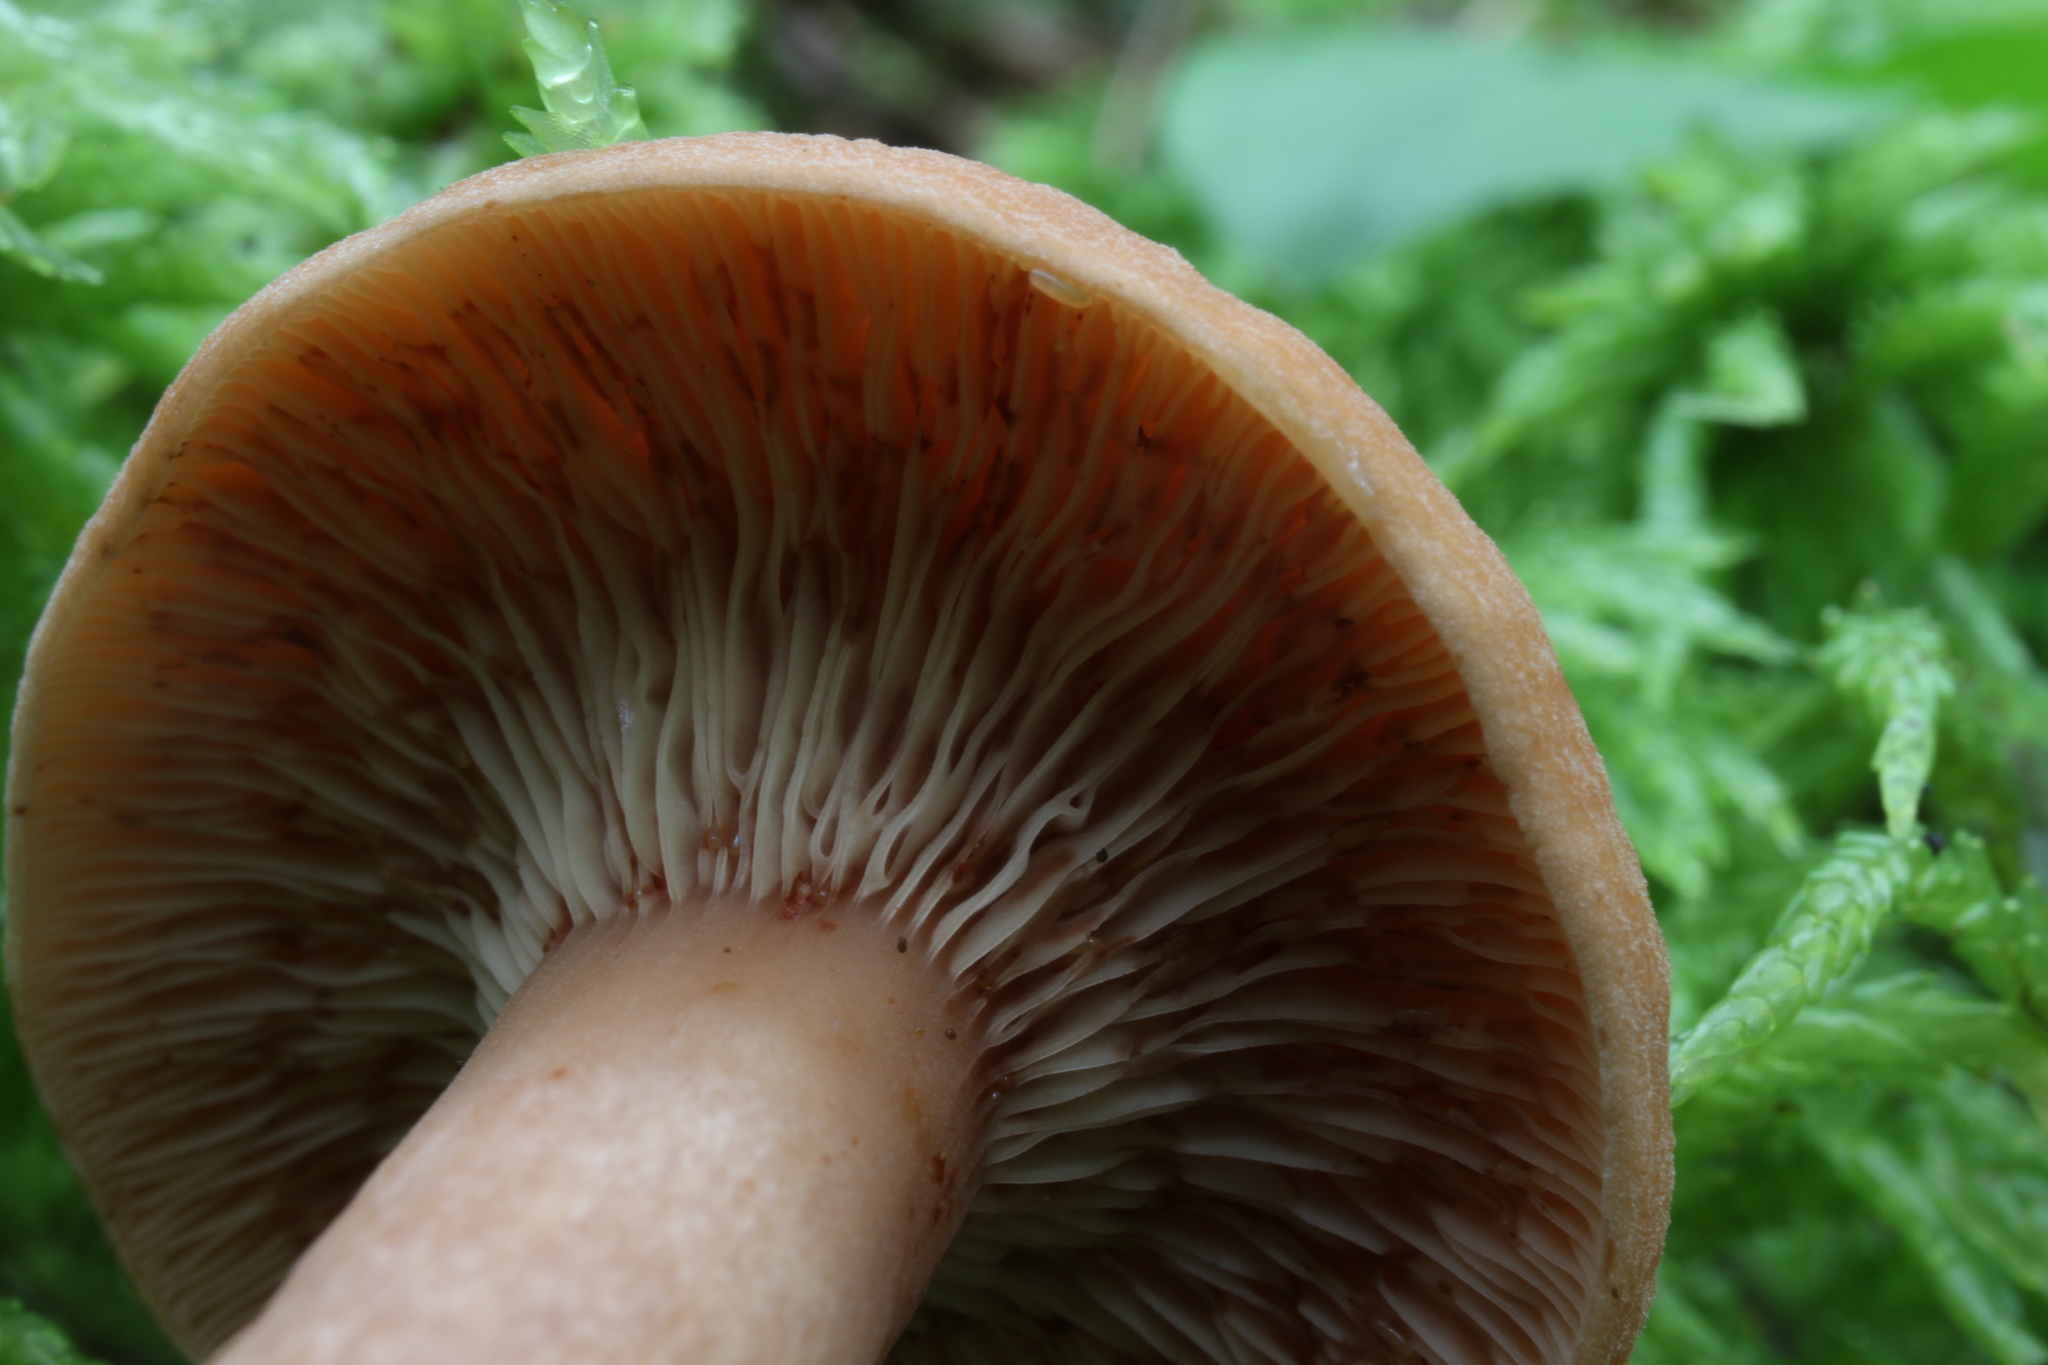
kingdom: Fungi
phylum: Basidiomycota
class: Agaricomycetes
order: Russulales
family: Russulaceae
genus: Lactarius
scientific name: Lactarius subdulcis
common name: Mild milkcap
